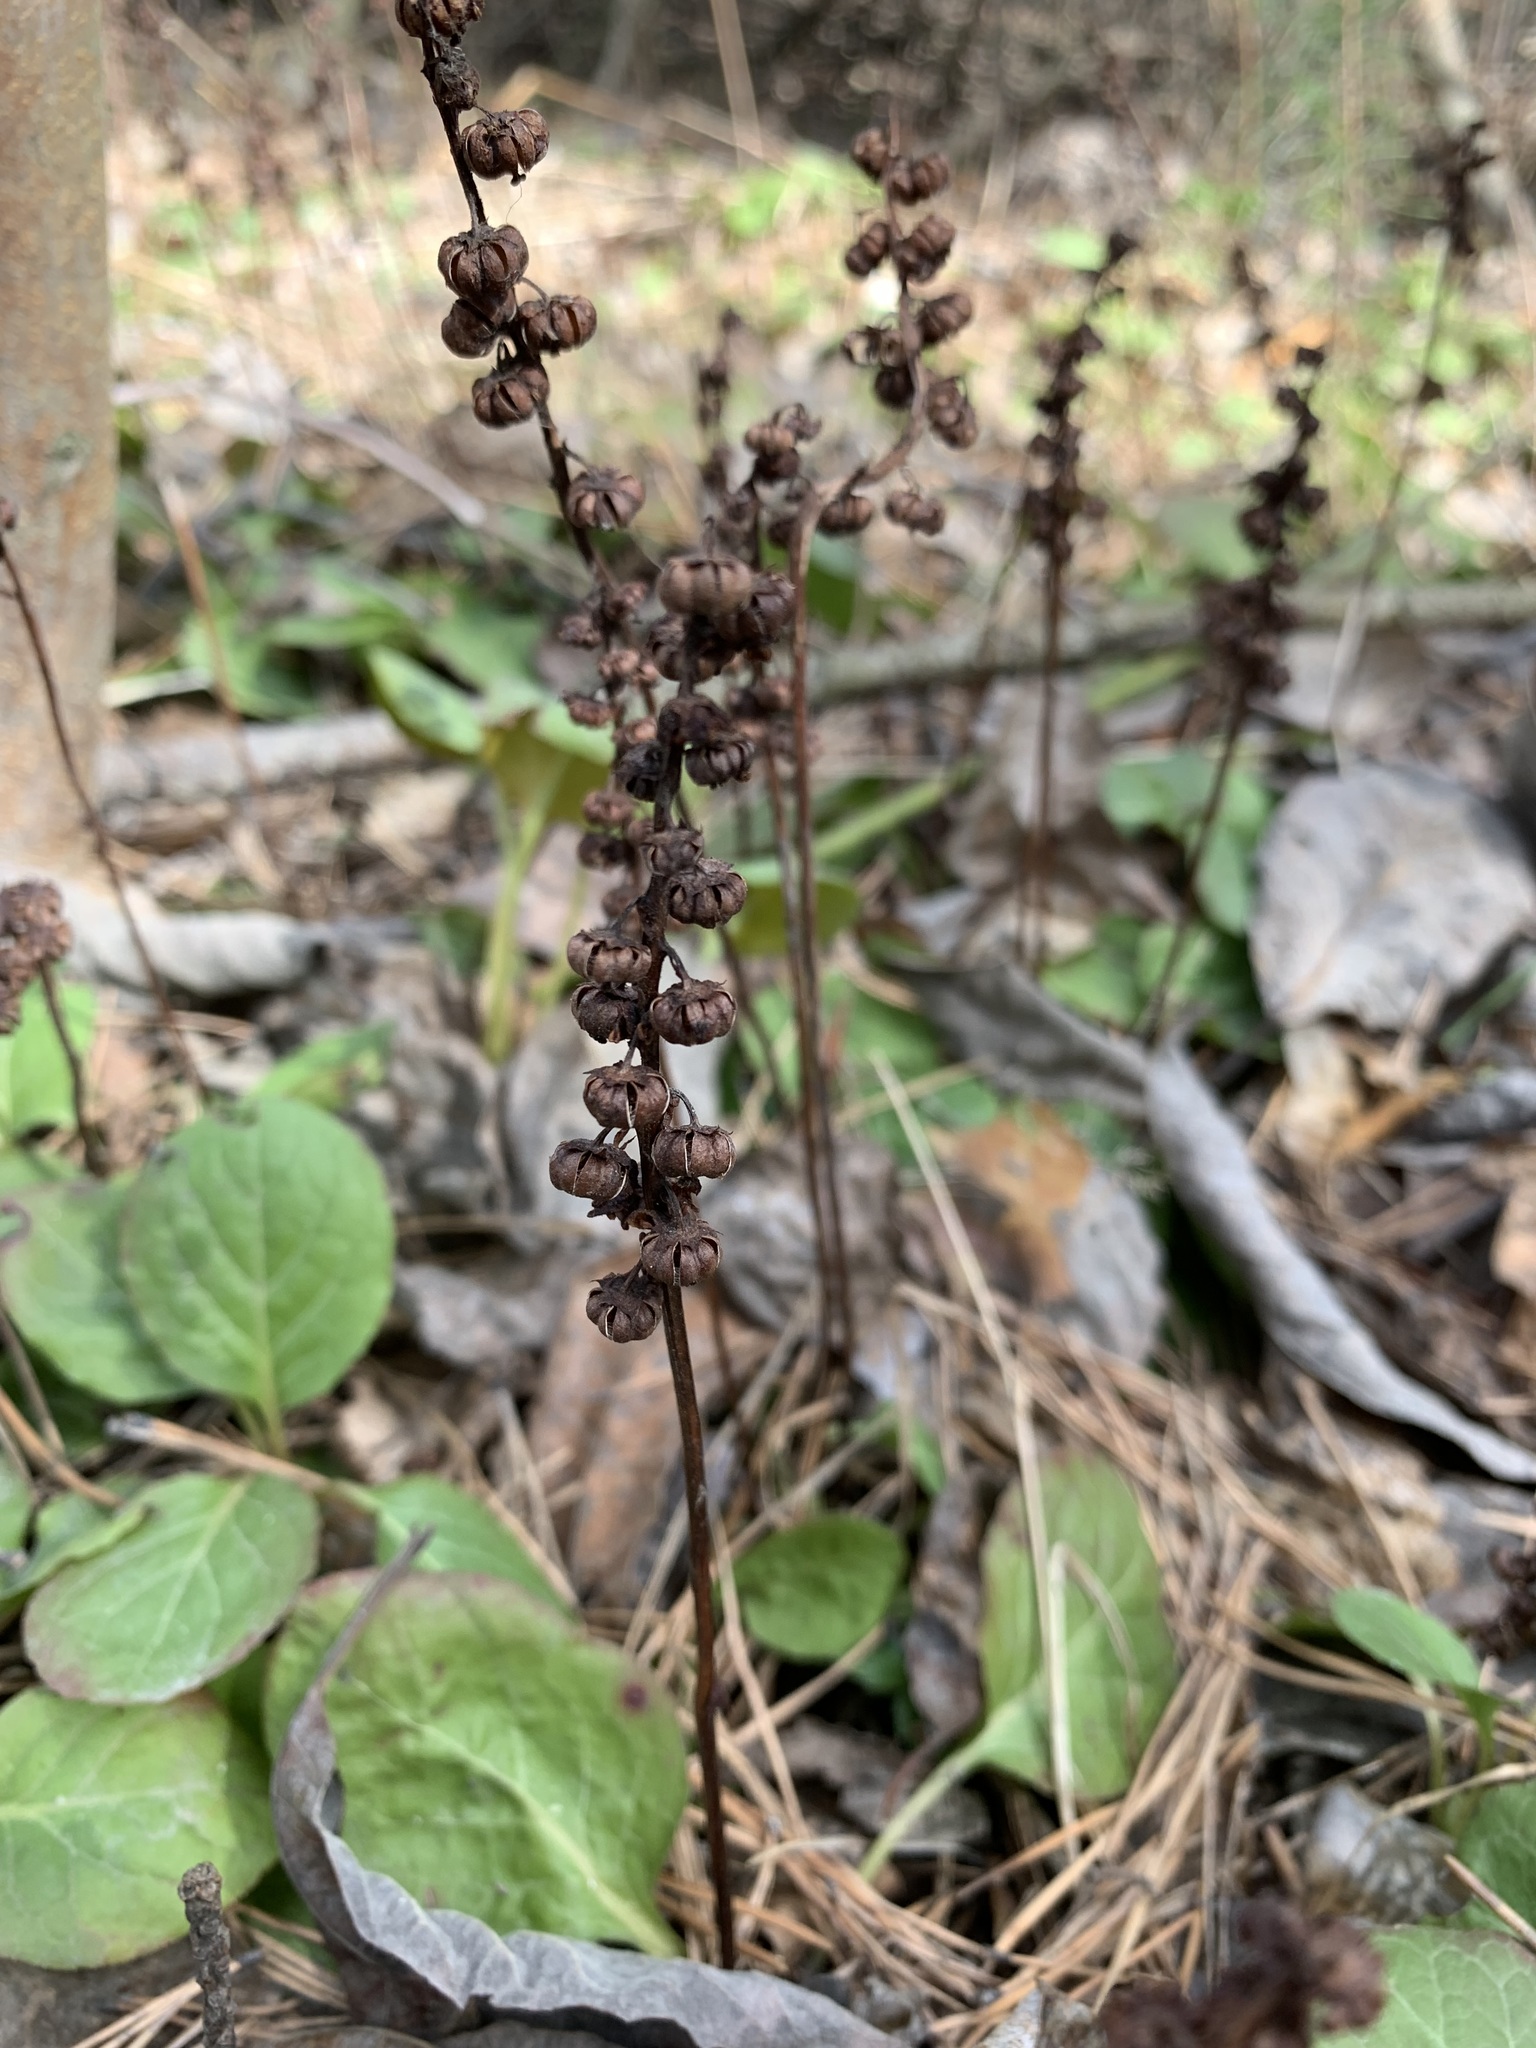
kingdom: Plantae
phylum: Tracheophyta
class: Magnoliopsida
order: Ericales
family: Ericaceae
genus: Pyrola
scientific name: Pyrola minor
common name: Common wintergreen
